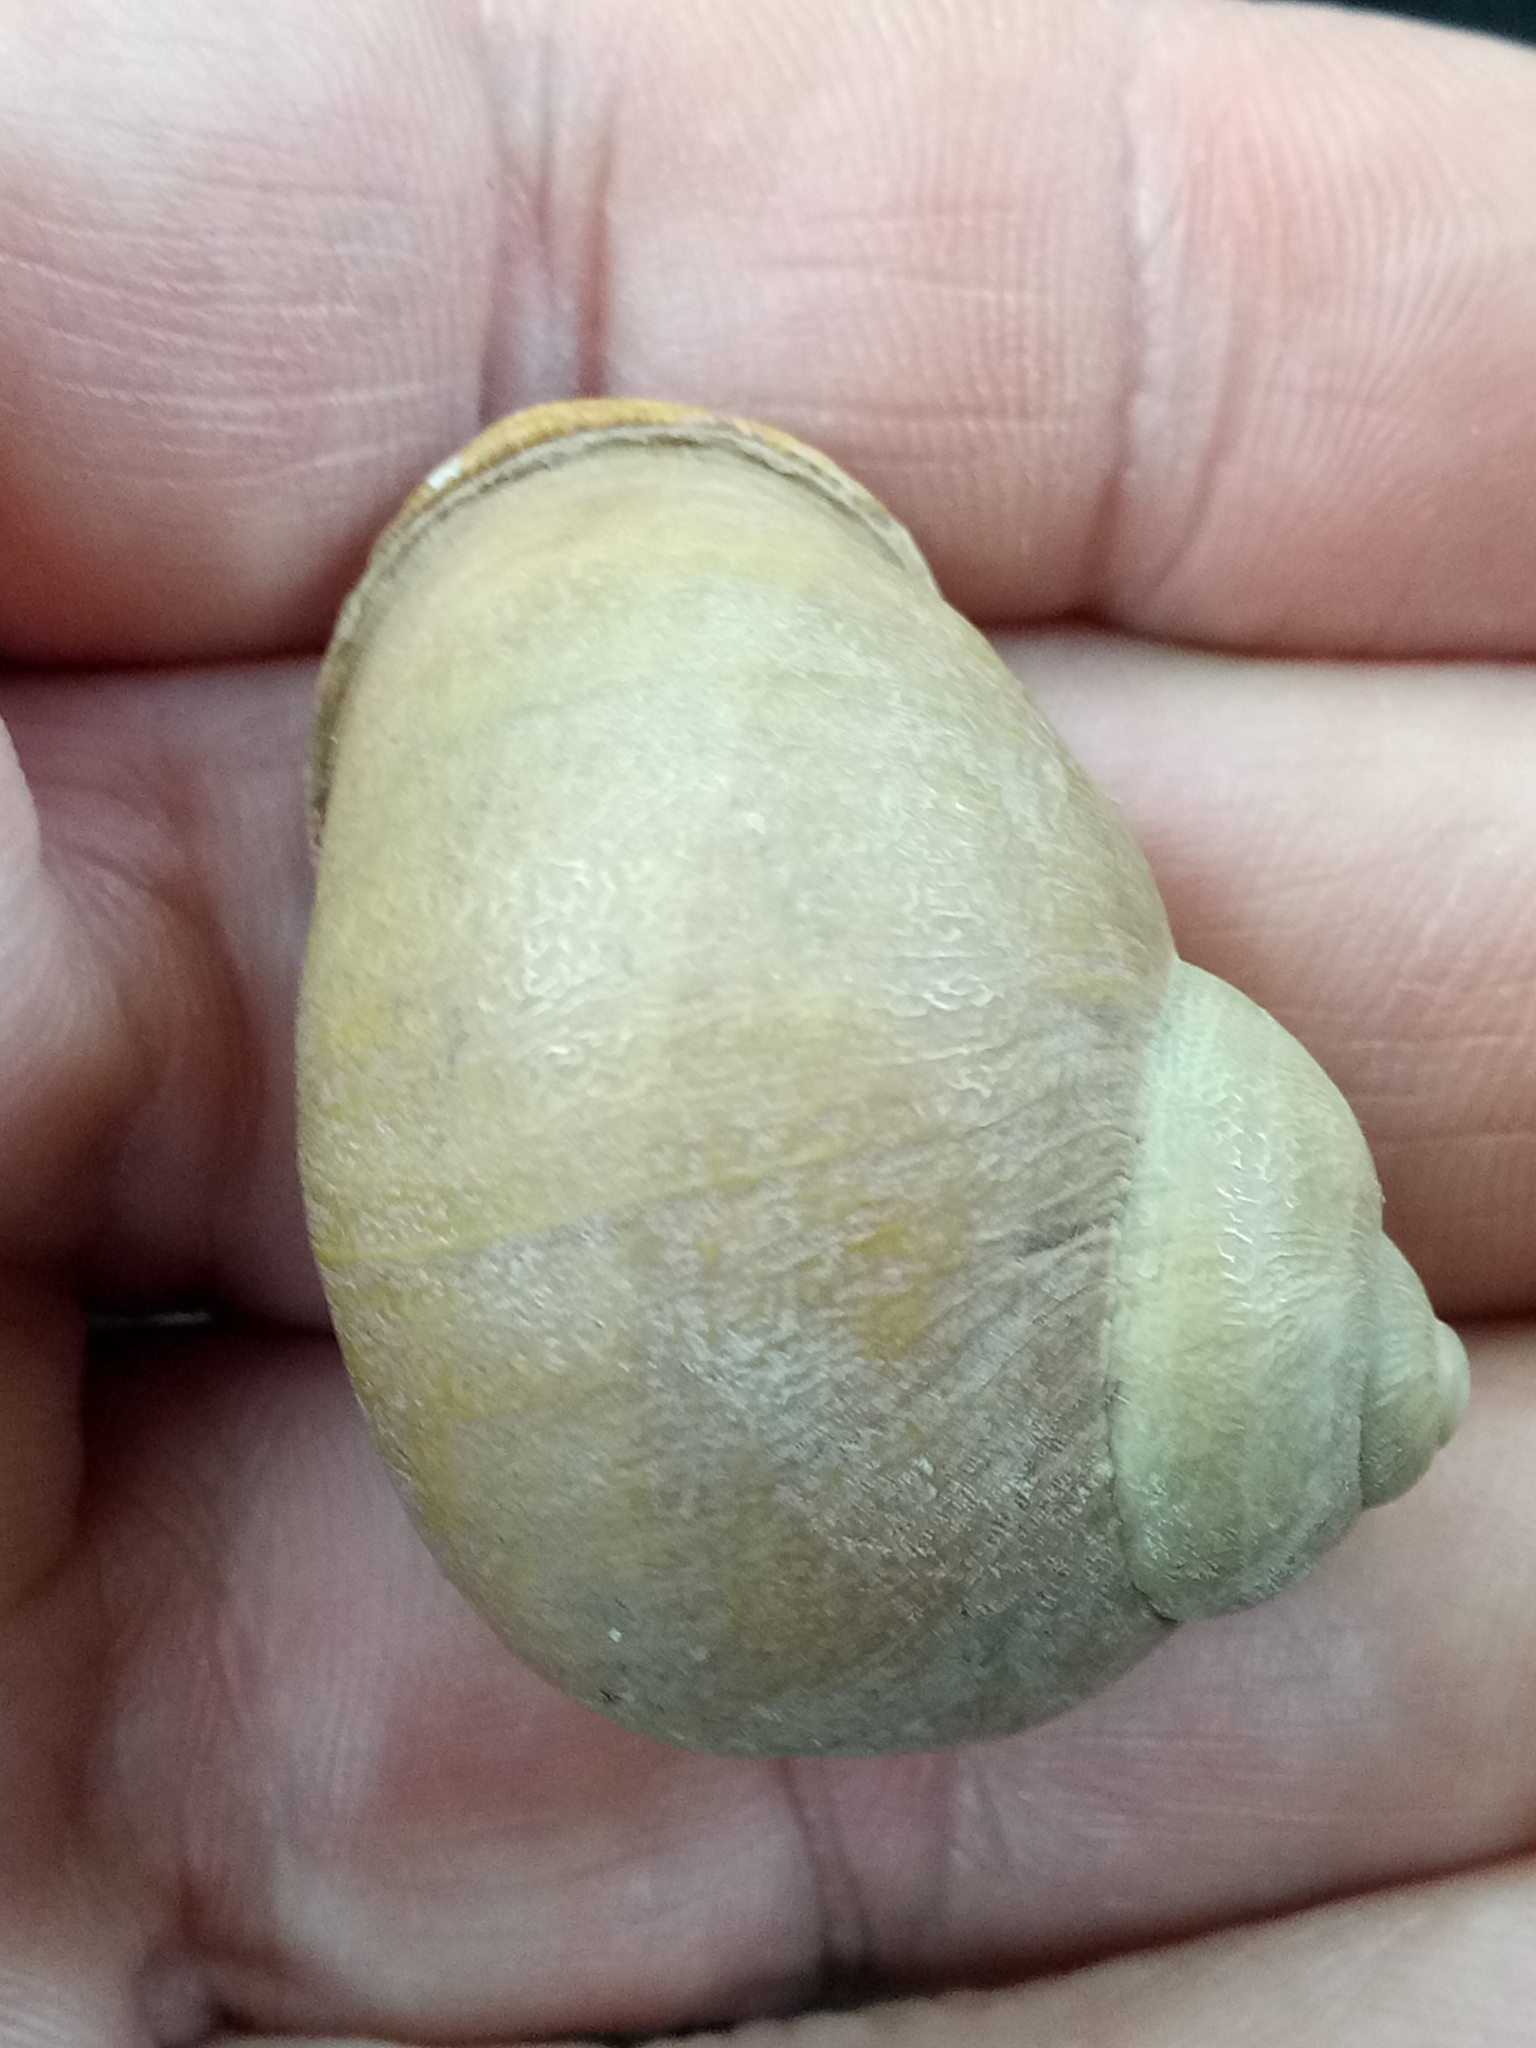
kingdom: Animalia
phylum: Mollusca
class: Gastropoda
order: Stylommatophora
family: Helicidae
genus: Cornu
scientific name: Cornu aspersum
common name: Brown garden snail
